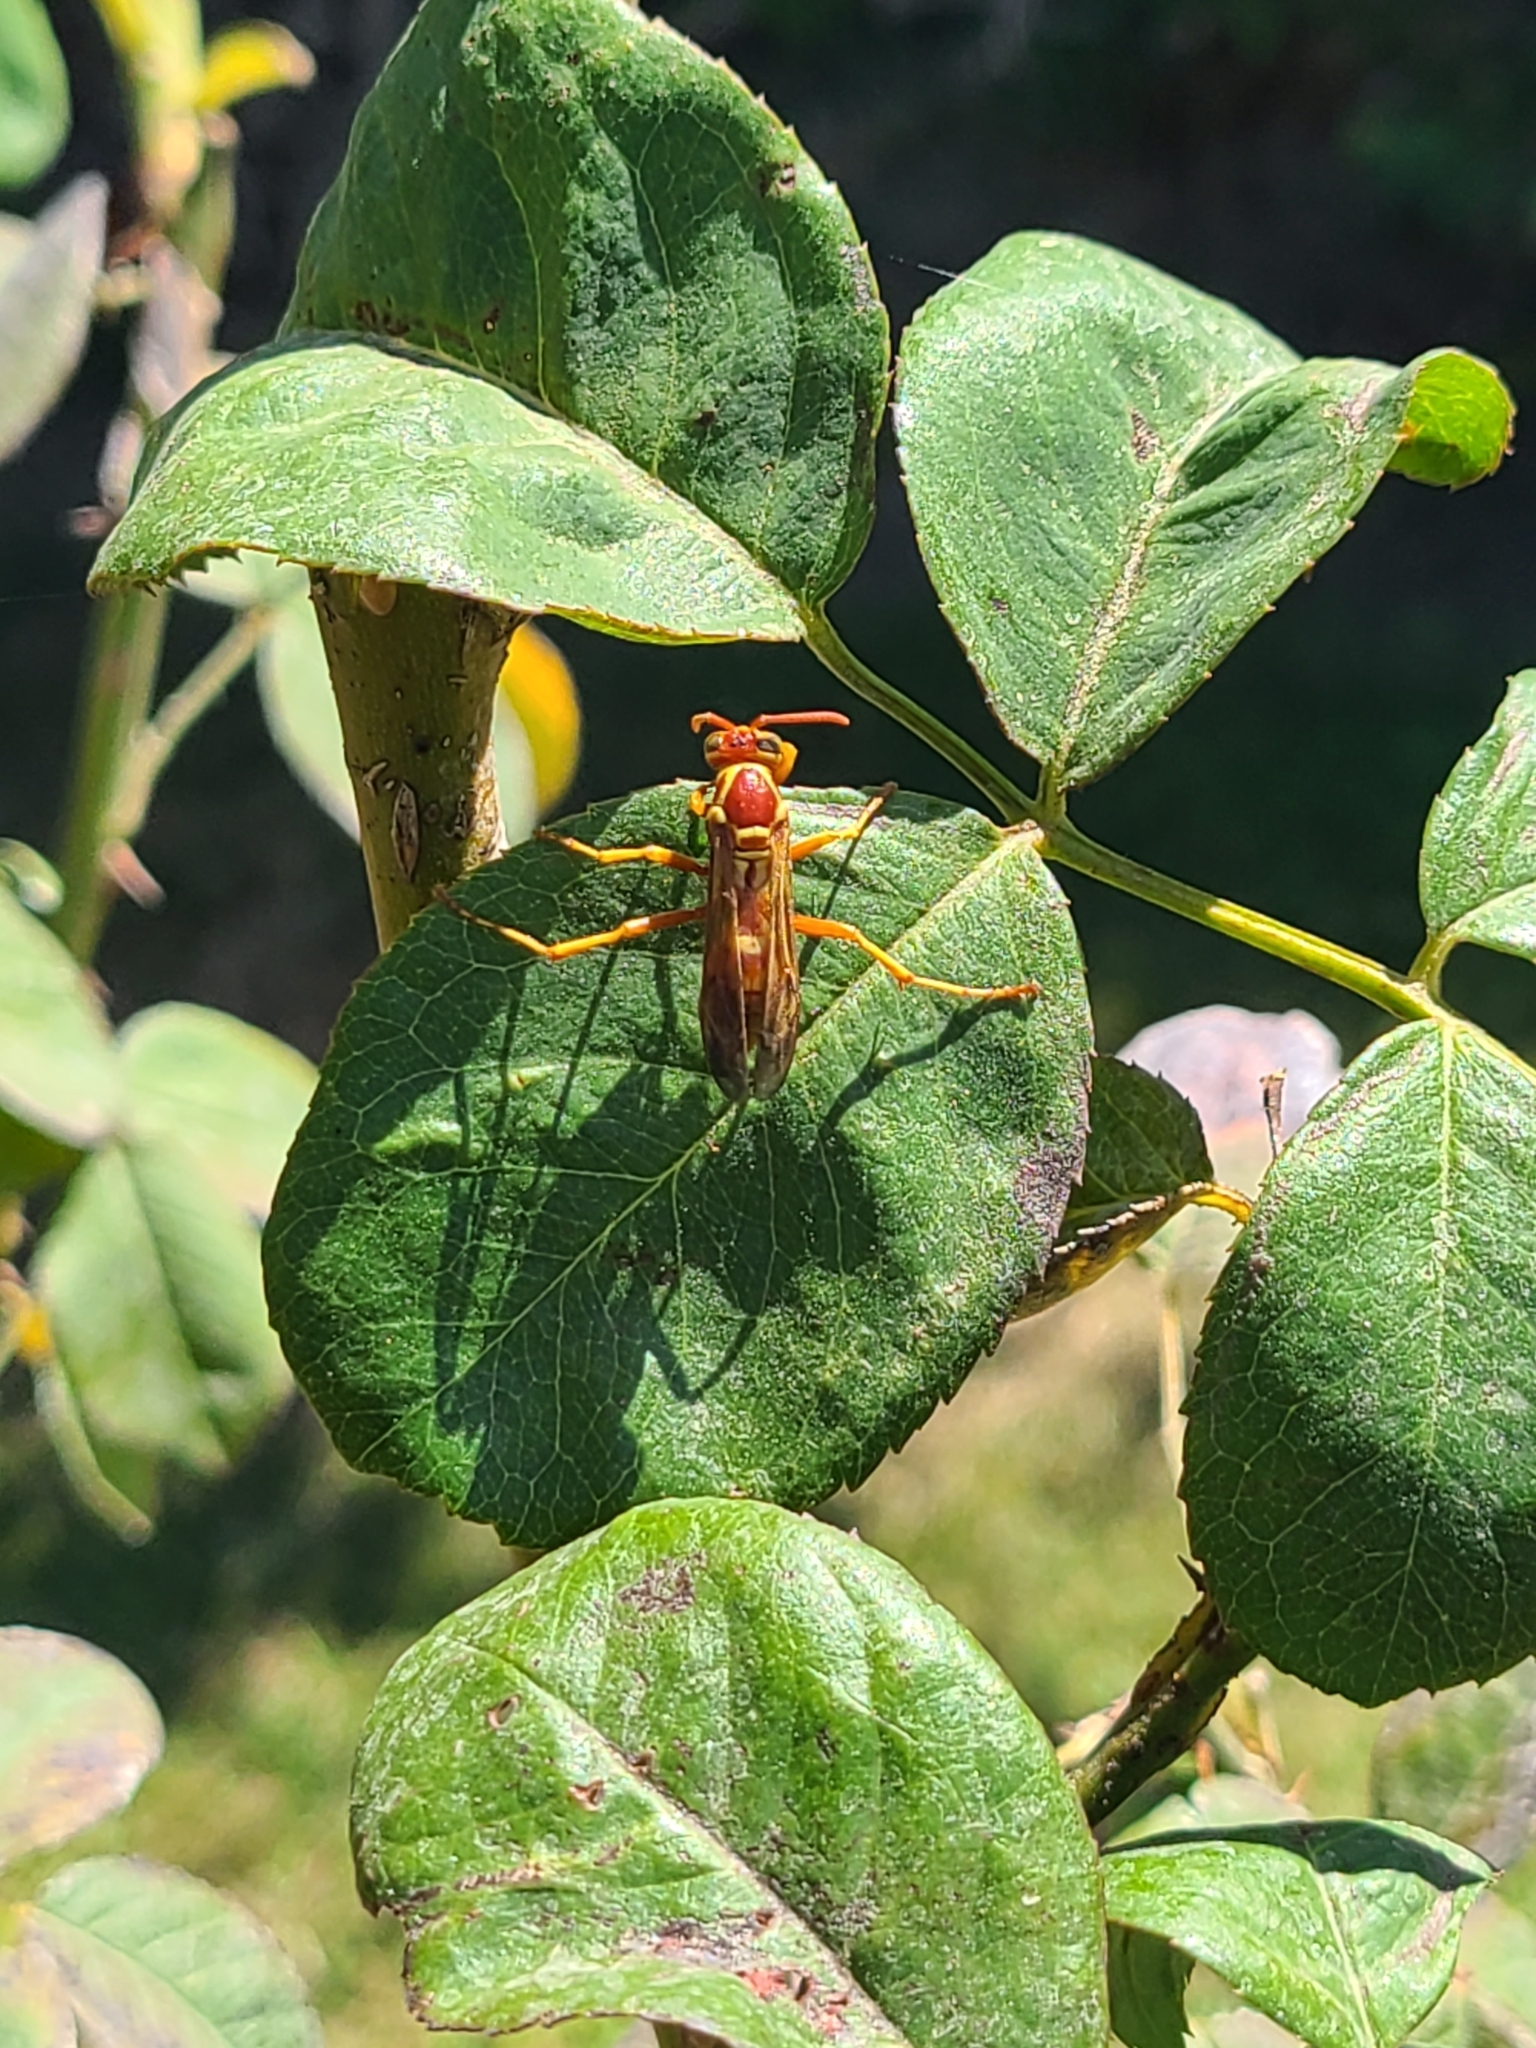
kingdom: Animalia
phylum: Arthropoda
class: Insecta
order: Hymenoptera
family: Vespidae
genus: Fuscopolistes
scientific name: Fuscopolistes
